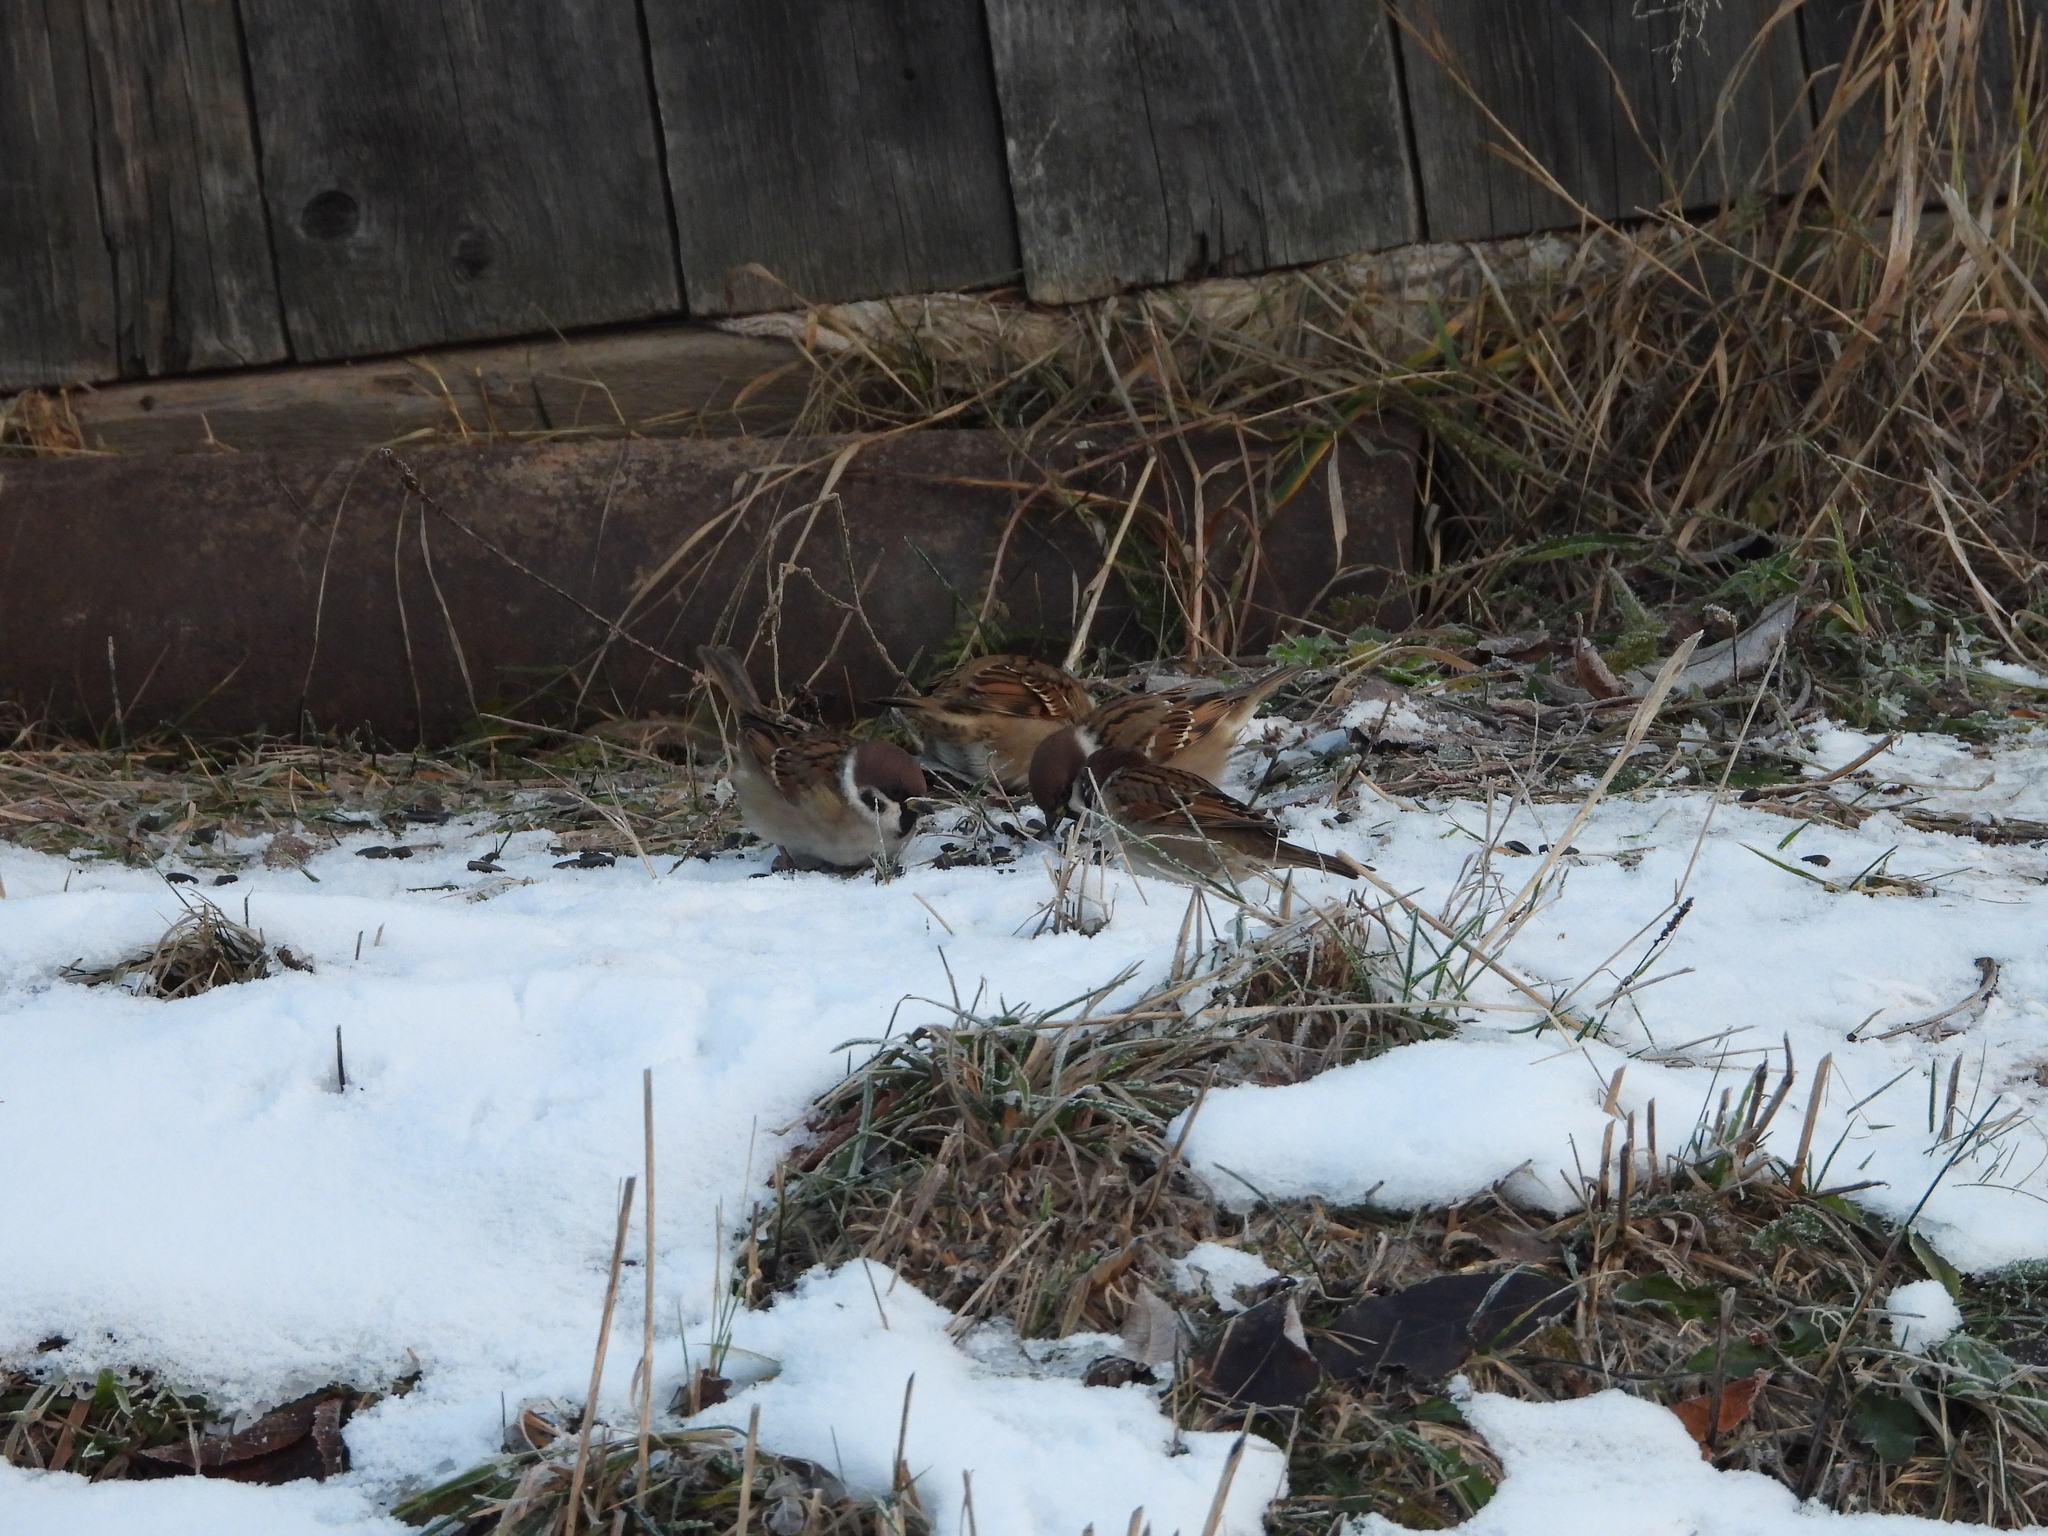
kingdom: Animalia
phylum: Chordata
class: Aves
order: Passeriformes
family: Passeridae
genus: Passer
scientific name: Passer montanus
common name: Eurasian tree sparrow
